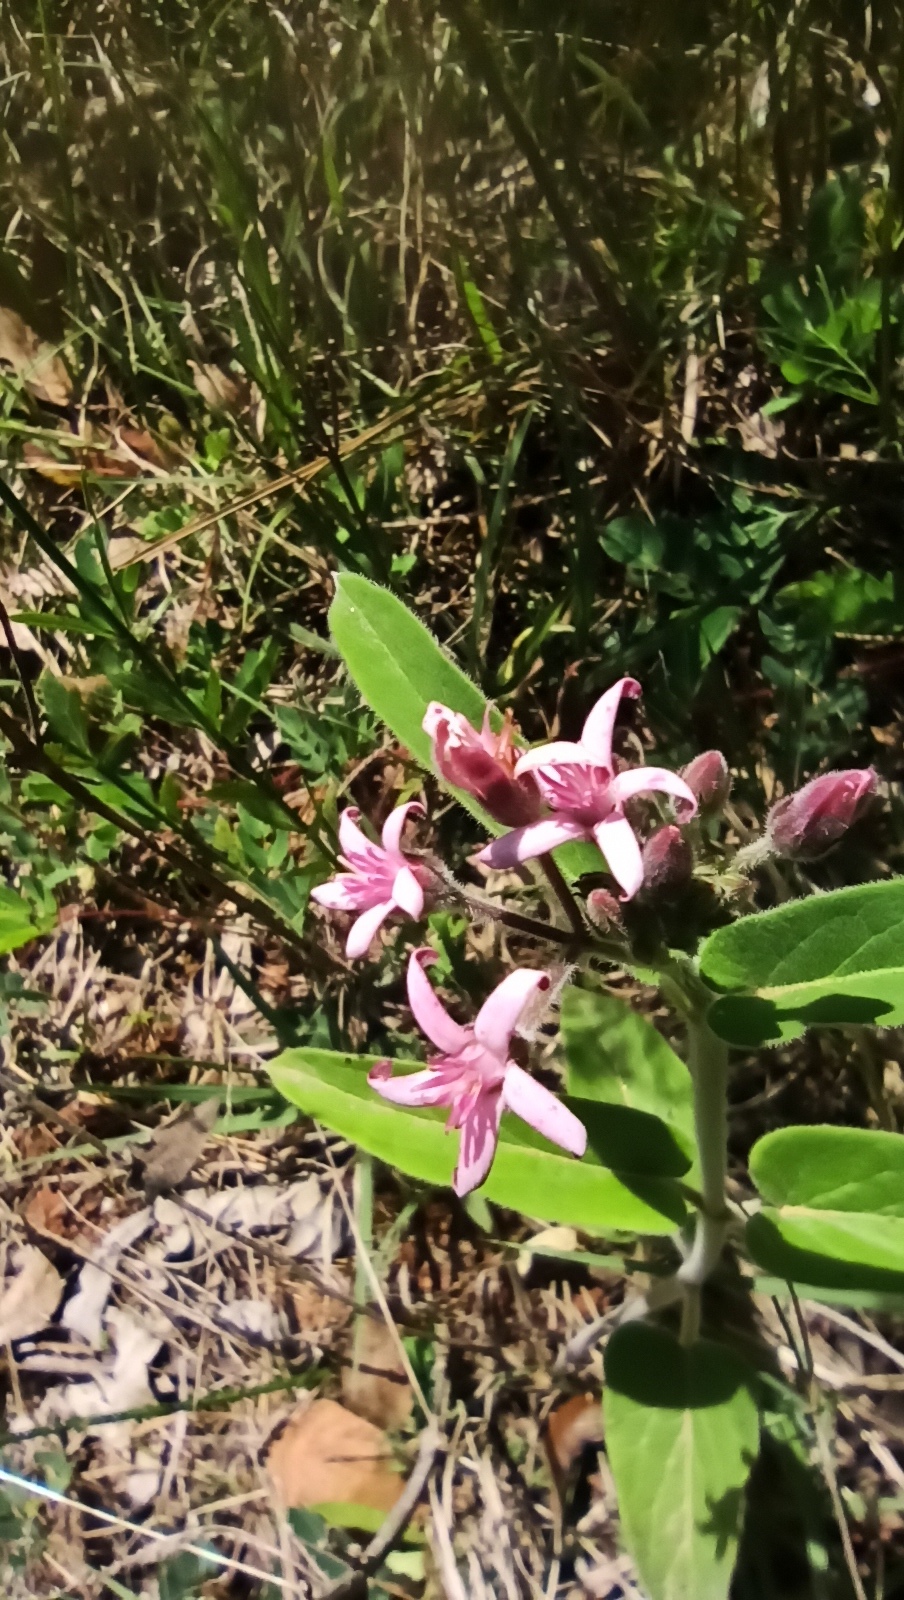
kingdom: Plantae
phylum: Tracheophyta
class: Magnoliopsida
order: Gentianales
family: Apocynaceae
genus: Oxypetalum
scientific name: Oxypetalum solanoides
